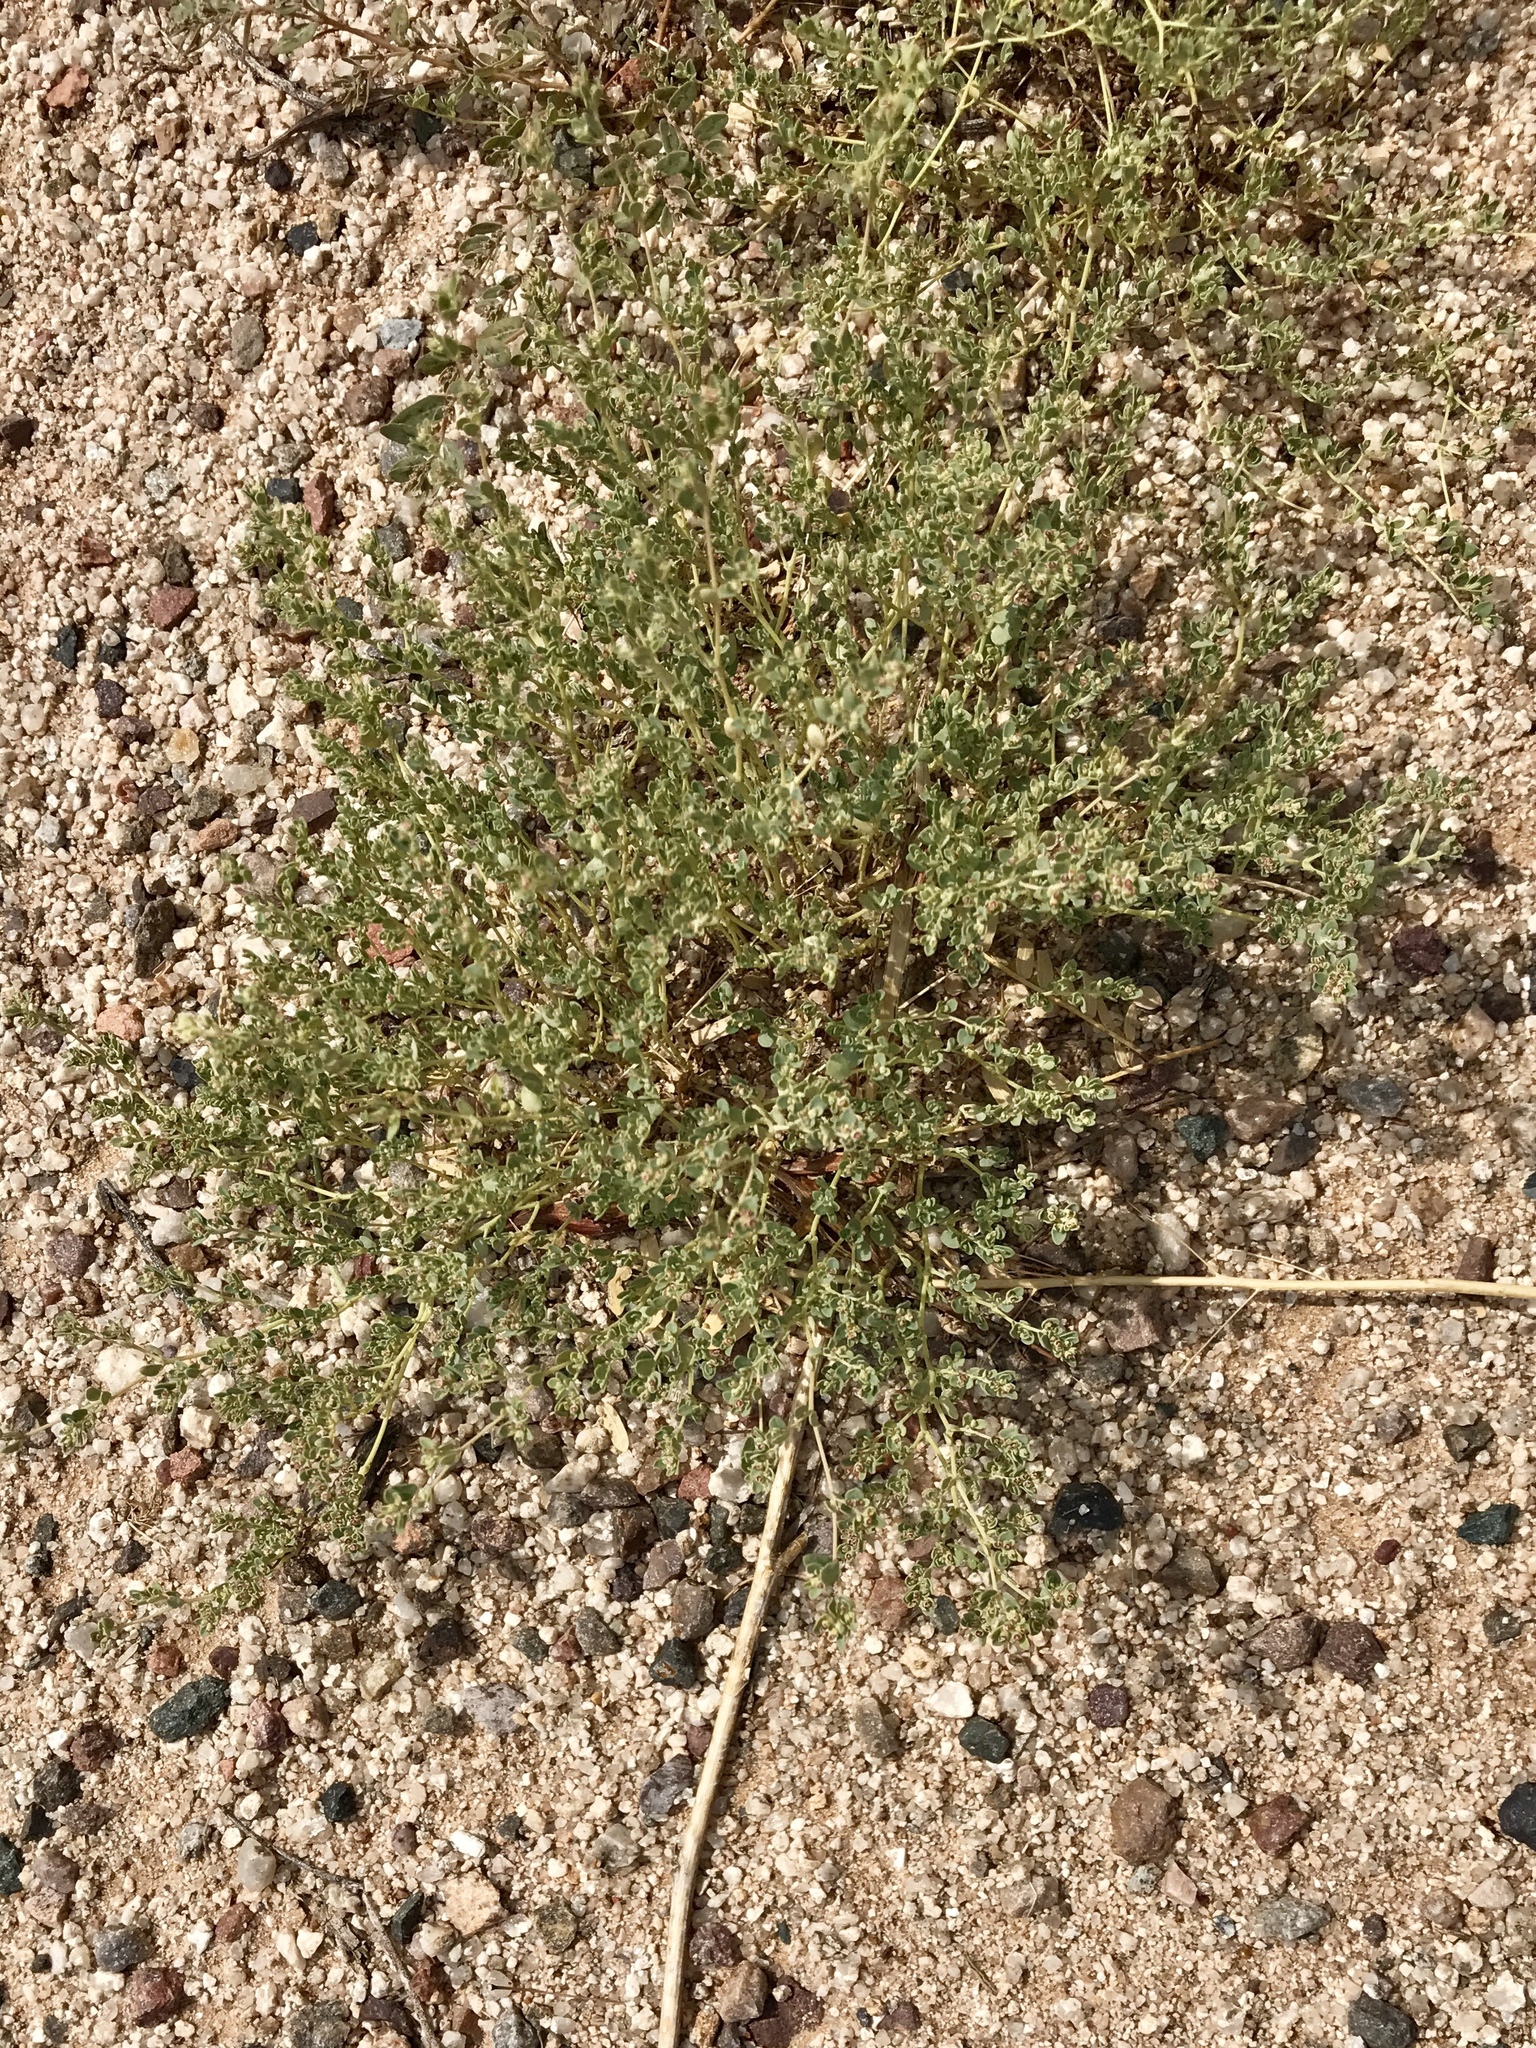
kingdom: Plantae
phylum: Tracheophyta
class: Magnoliopsida
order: Malpighiales
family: Euphorbiaceae
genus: Euphorbia
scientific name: Euphorbia polycarpa
